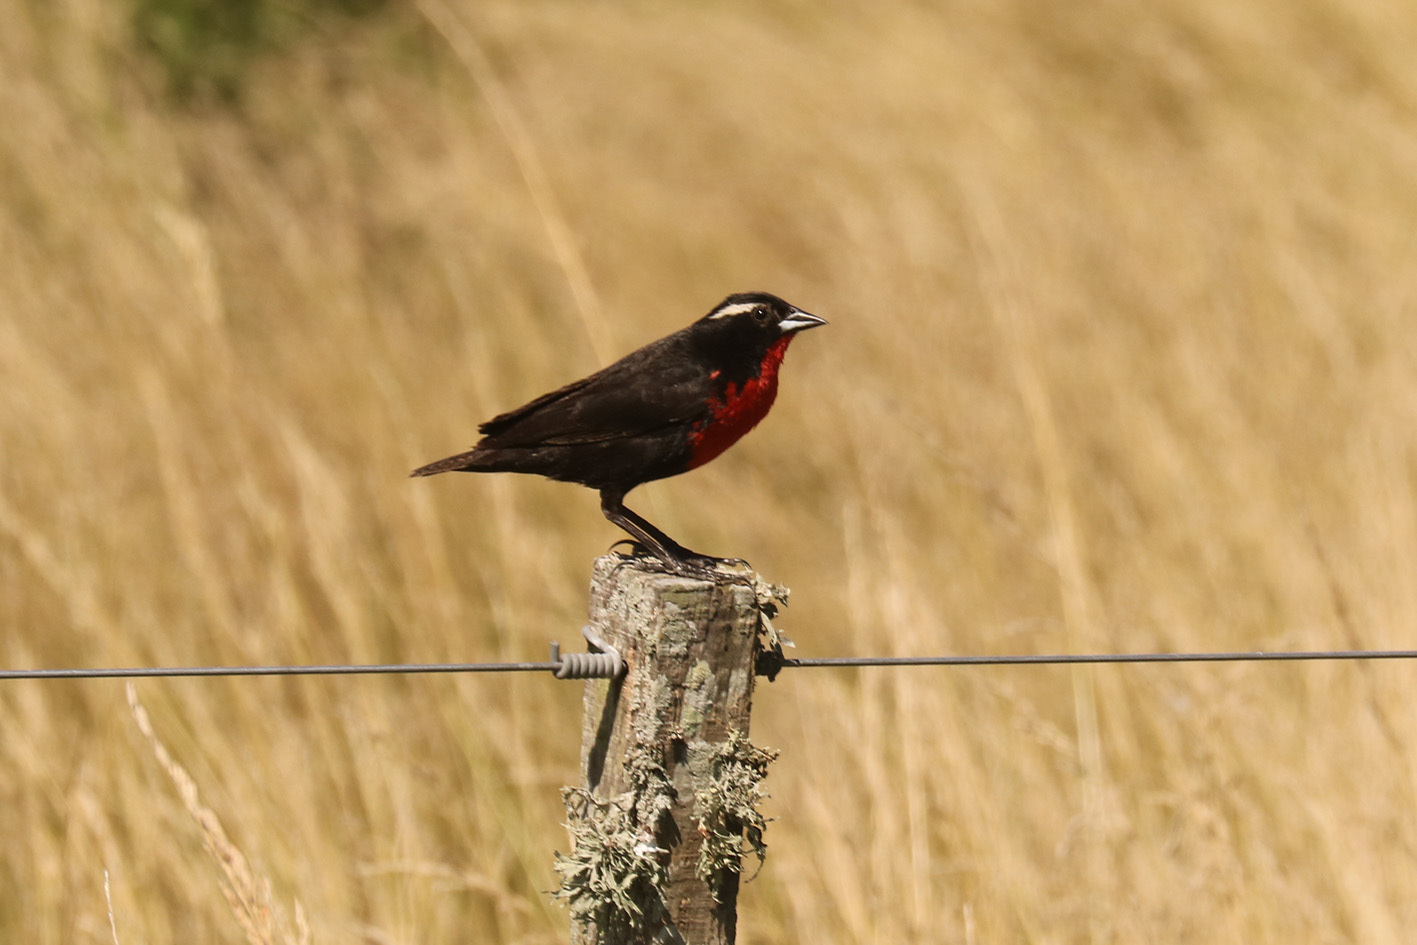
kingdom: Animalia
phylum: Chordata
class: Aves
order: Passeriformes
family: Icteridae
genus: Sturnella
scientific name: Sturnella superciliaris
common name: White-browed blackbird
